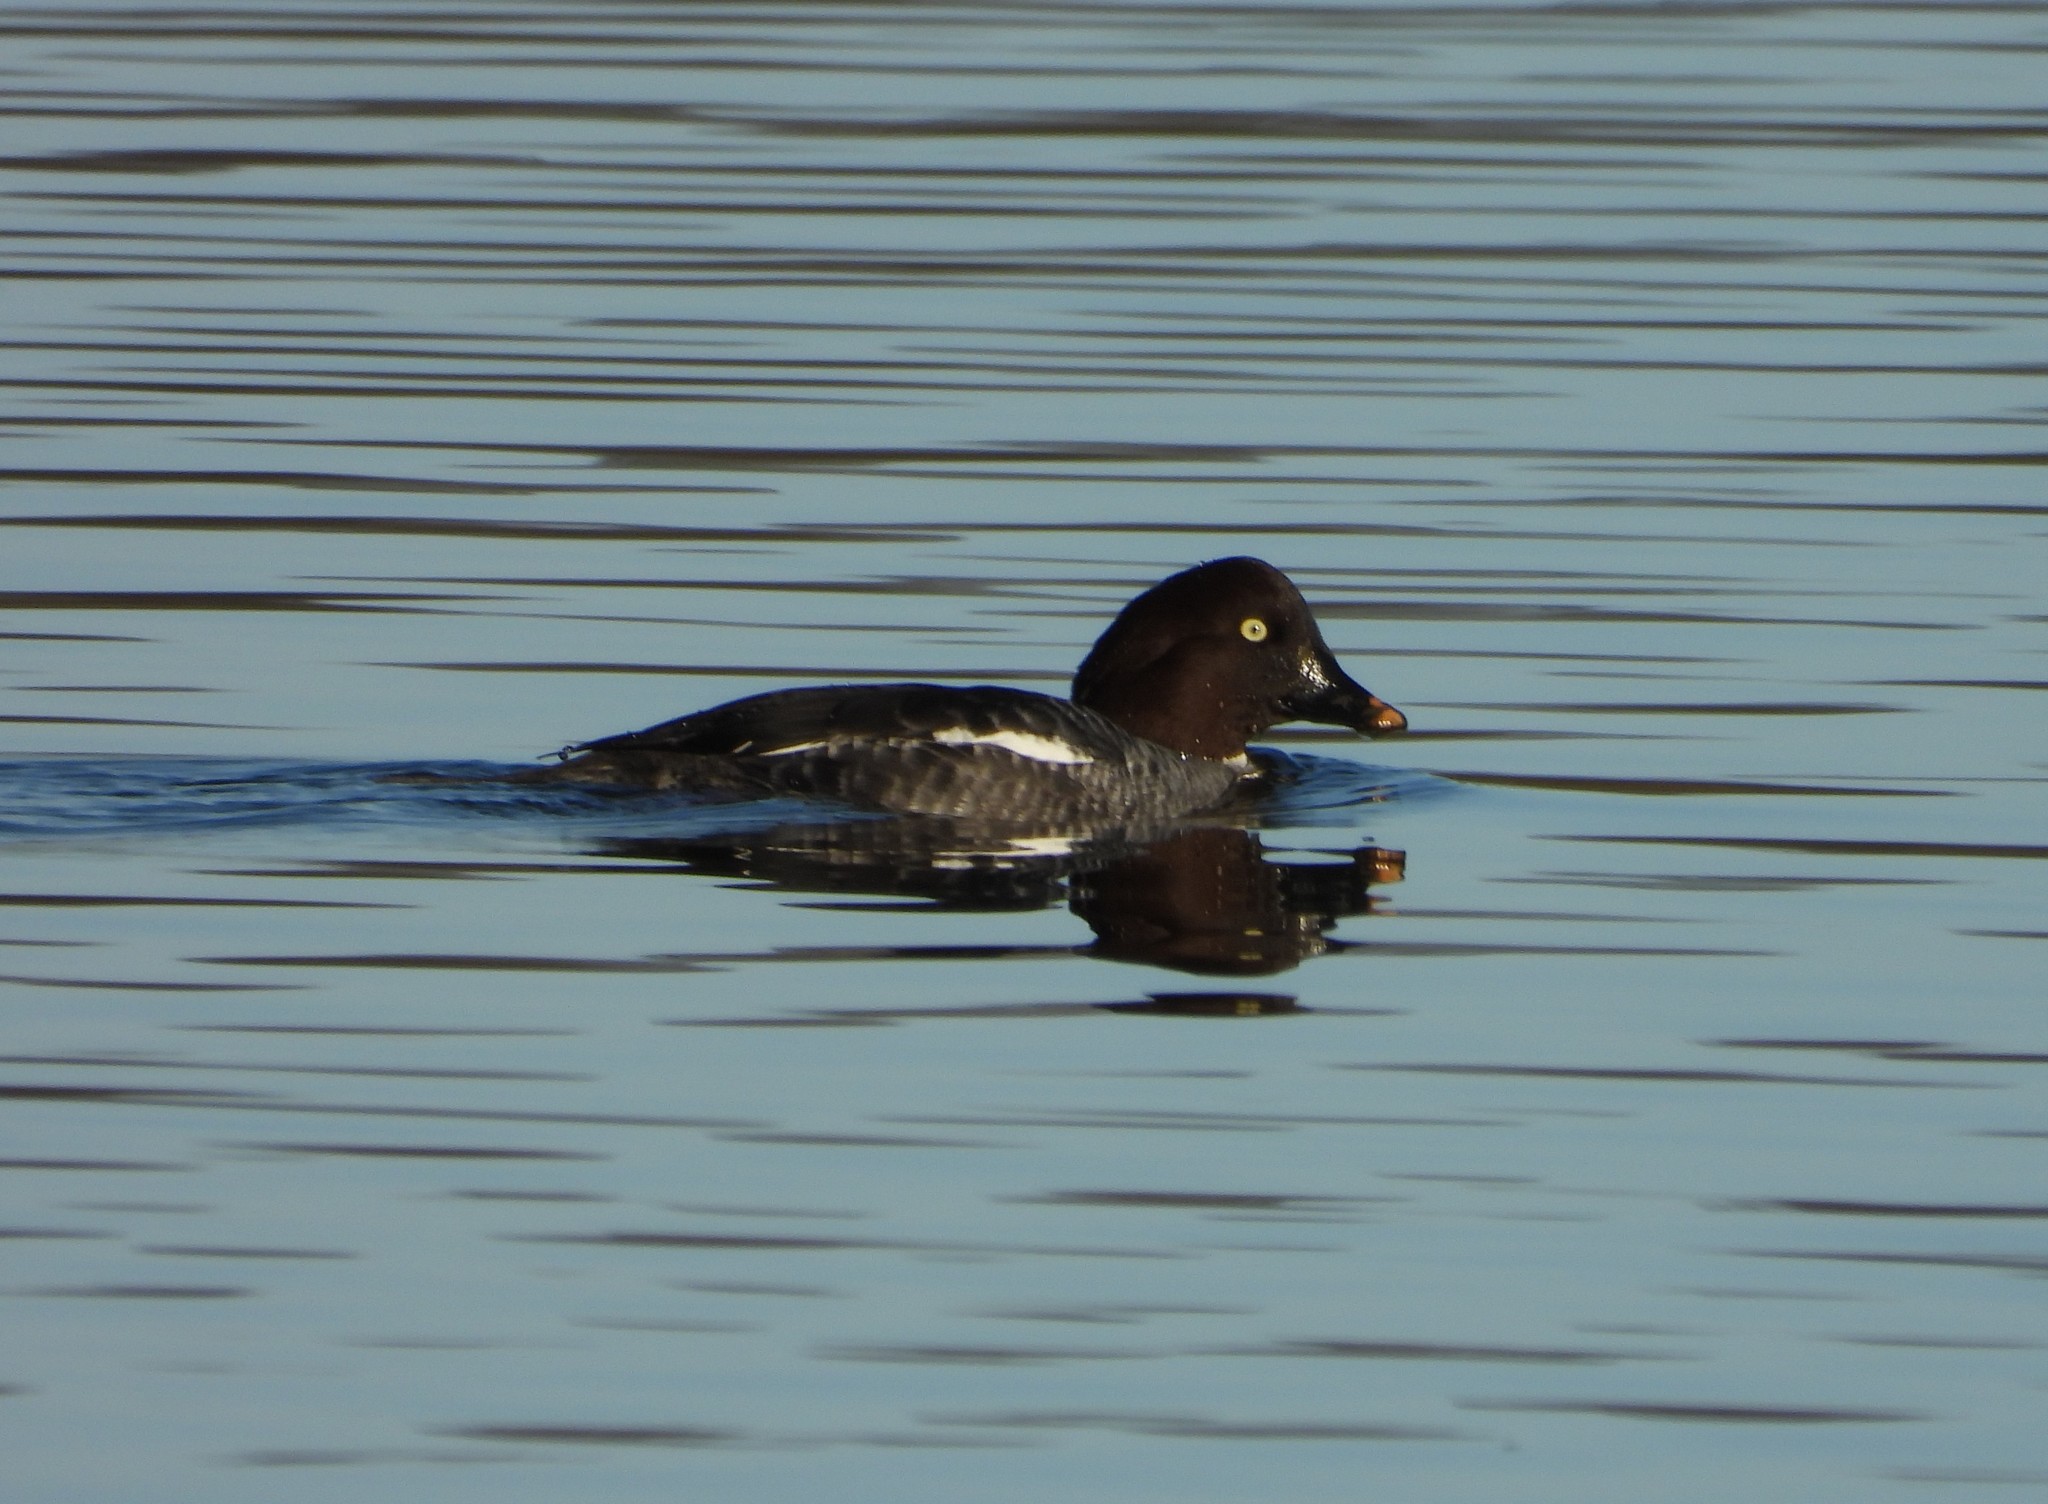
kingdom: Animalia
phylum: Chordata
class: Aves
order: Anseriformes
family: Anatidae
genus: Bucephala
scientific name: Bucephala clangula
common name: Common goldeneye
